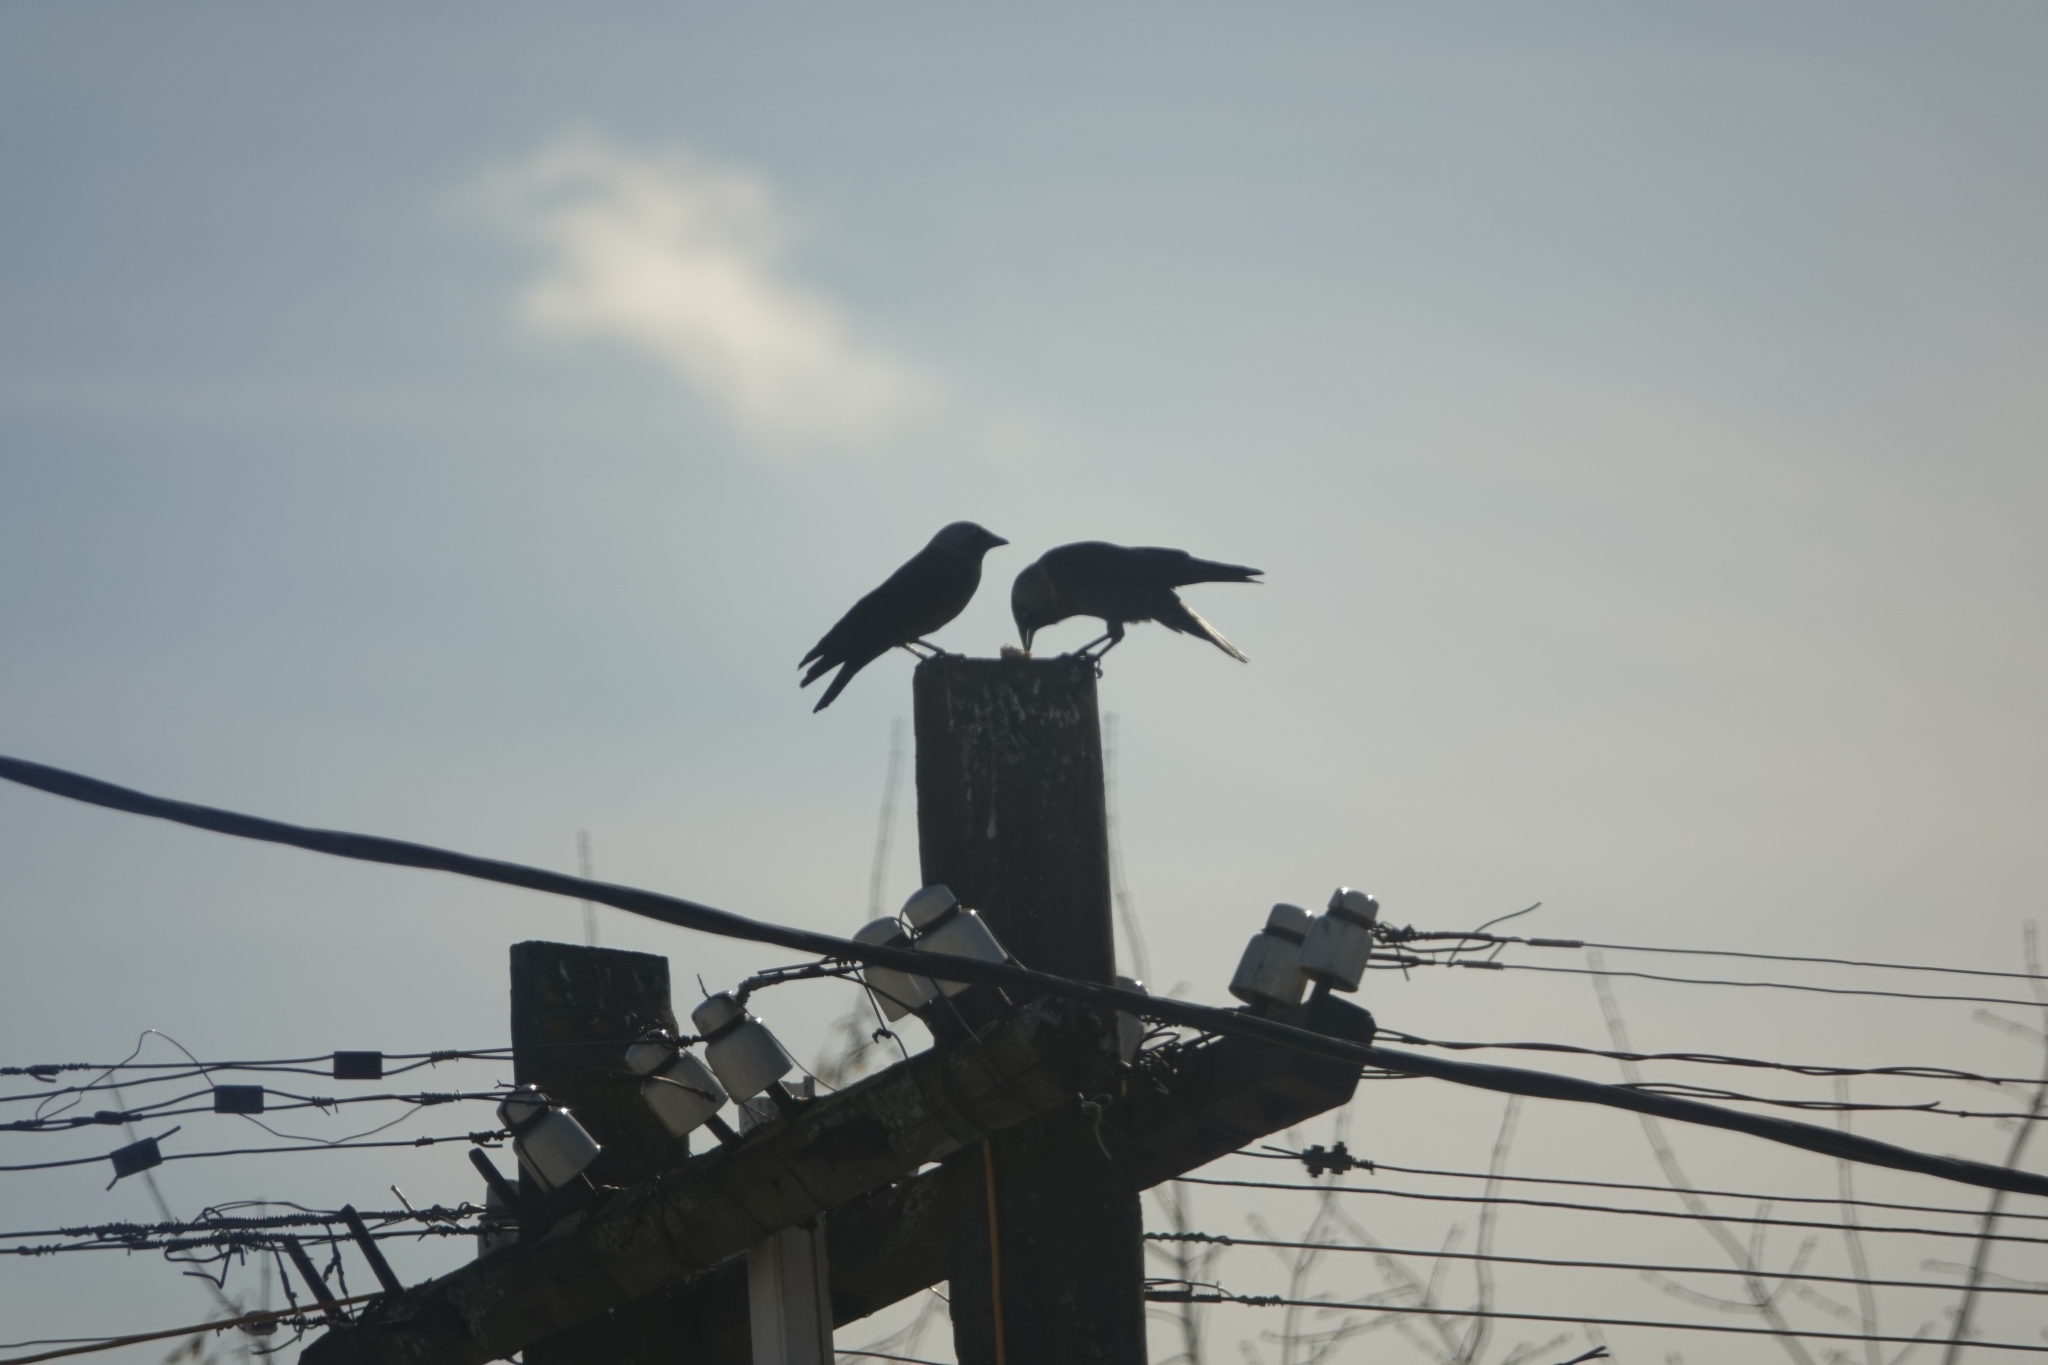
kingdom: Animalia
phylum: Chordata
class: Aves
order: Passeriformes
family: Corvidae
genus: Coloeus
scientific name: Coloeus monedula
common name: Western jackdaw
